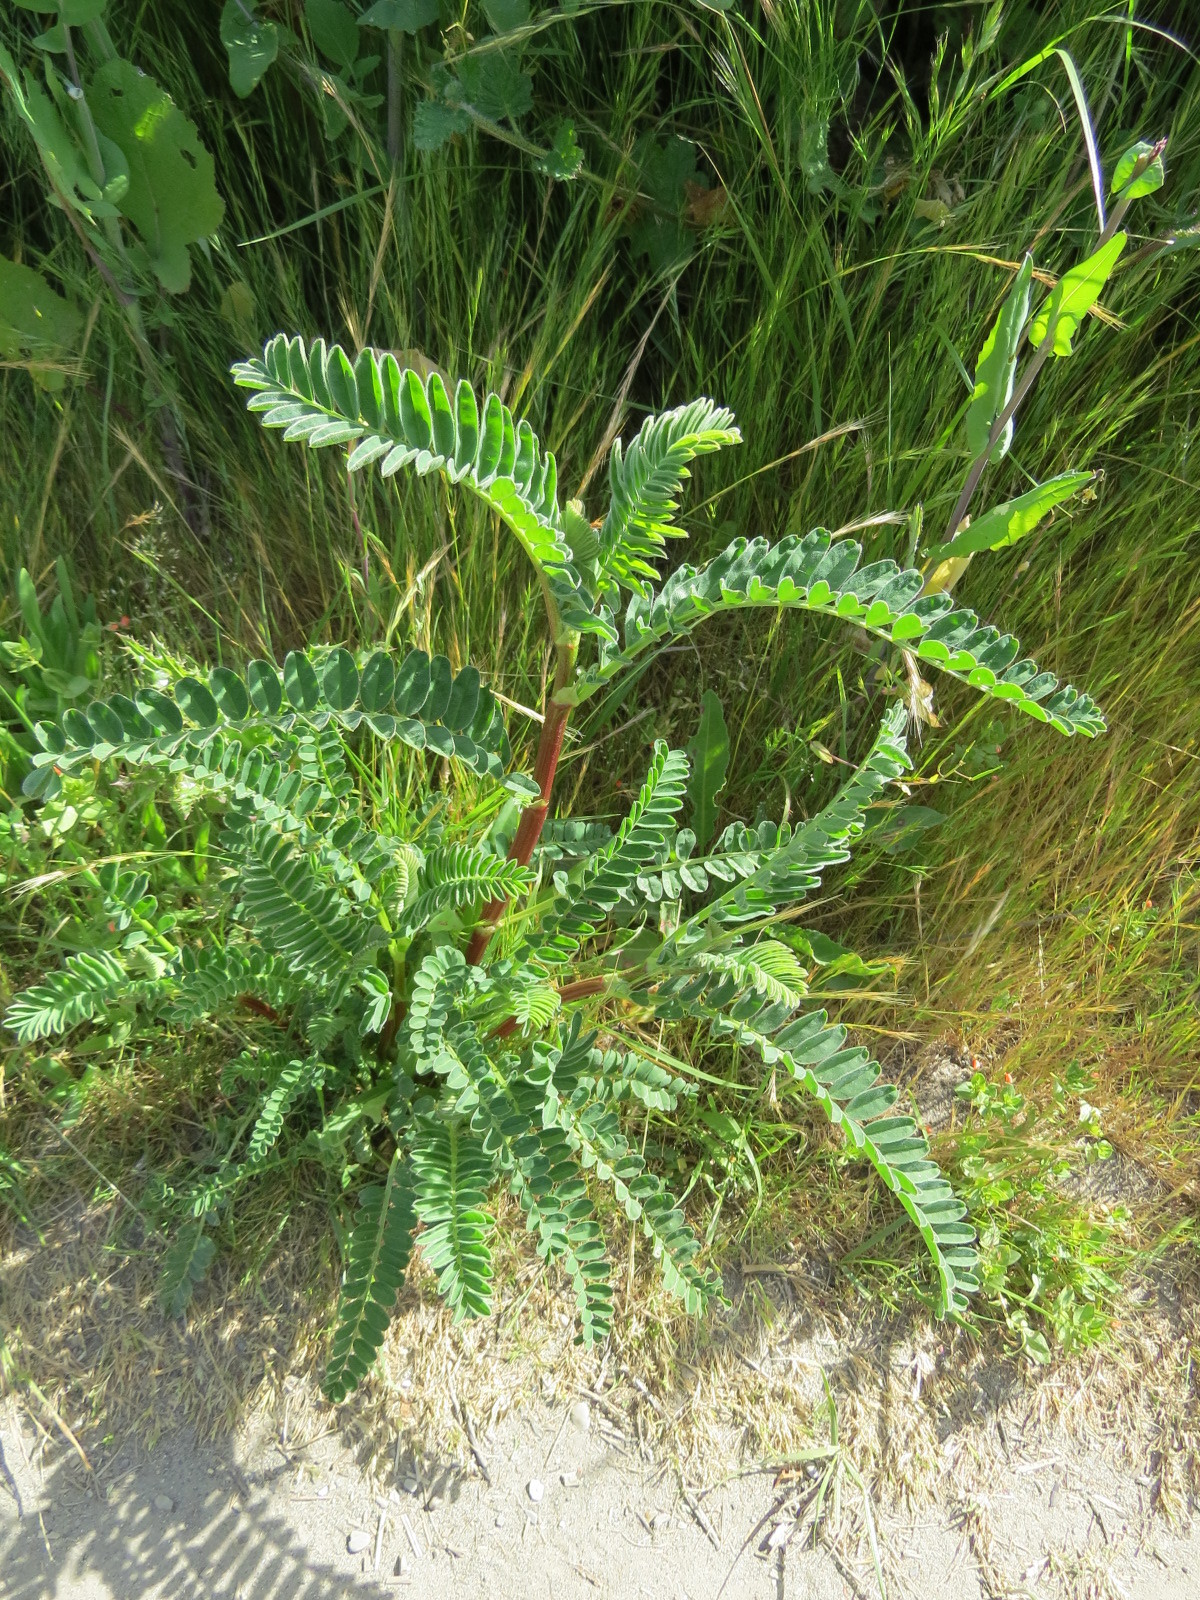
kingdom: Plantae
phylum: Tracheophyta
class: Magnoliopsida
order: Fabales
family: Fabaceae
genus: Astragalus
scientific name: Astragalus pycnostachyus
